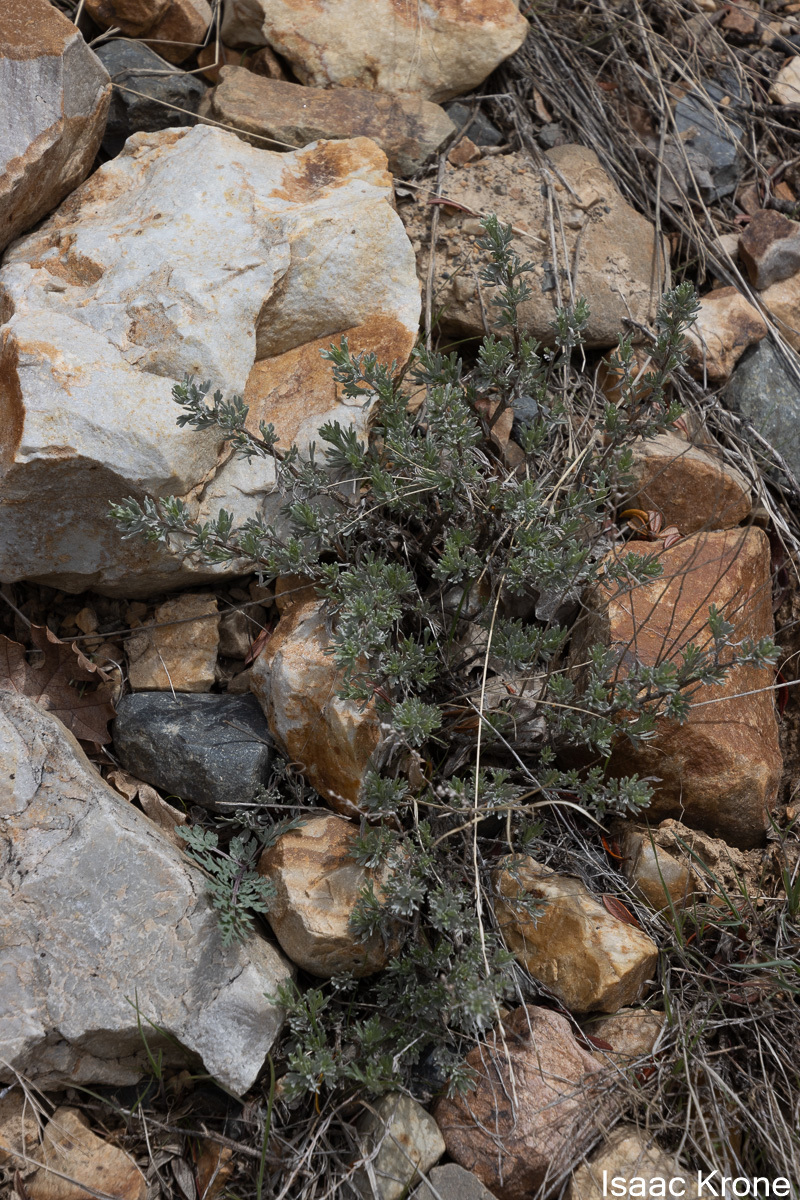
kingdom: Plantae
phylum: Tracheophyta
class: Magnoliopsida
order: Asterales
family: Asteraceae
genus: Artemisia
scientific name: Artemisia frigida
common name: Prairie sagewort
